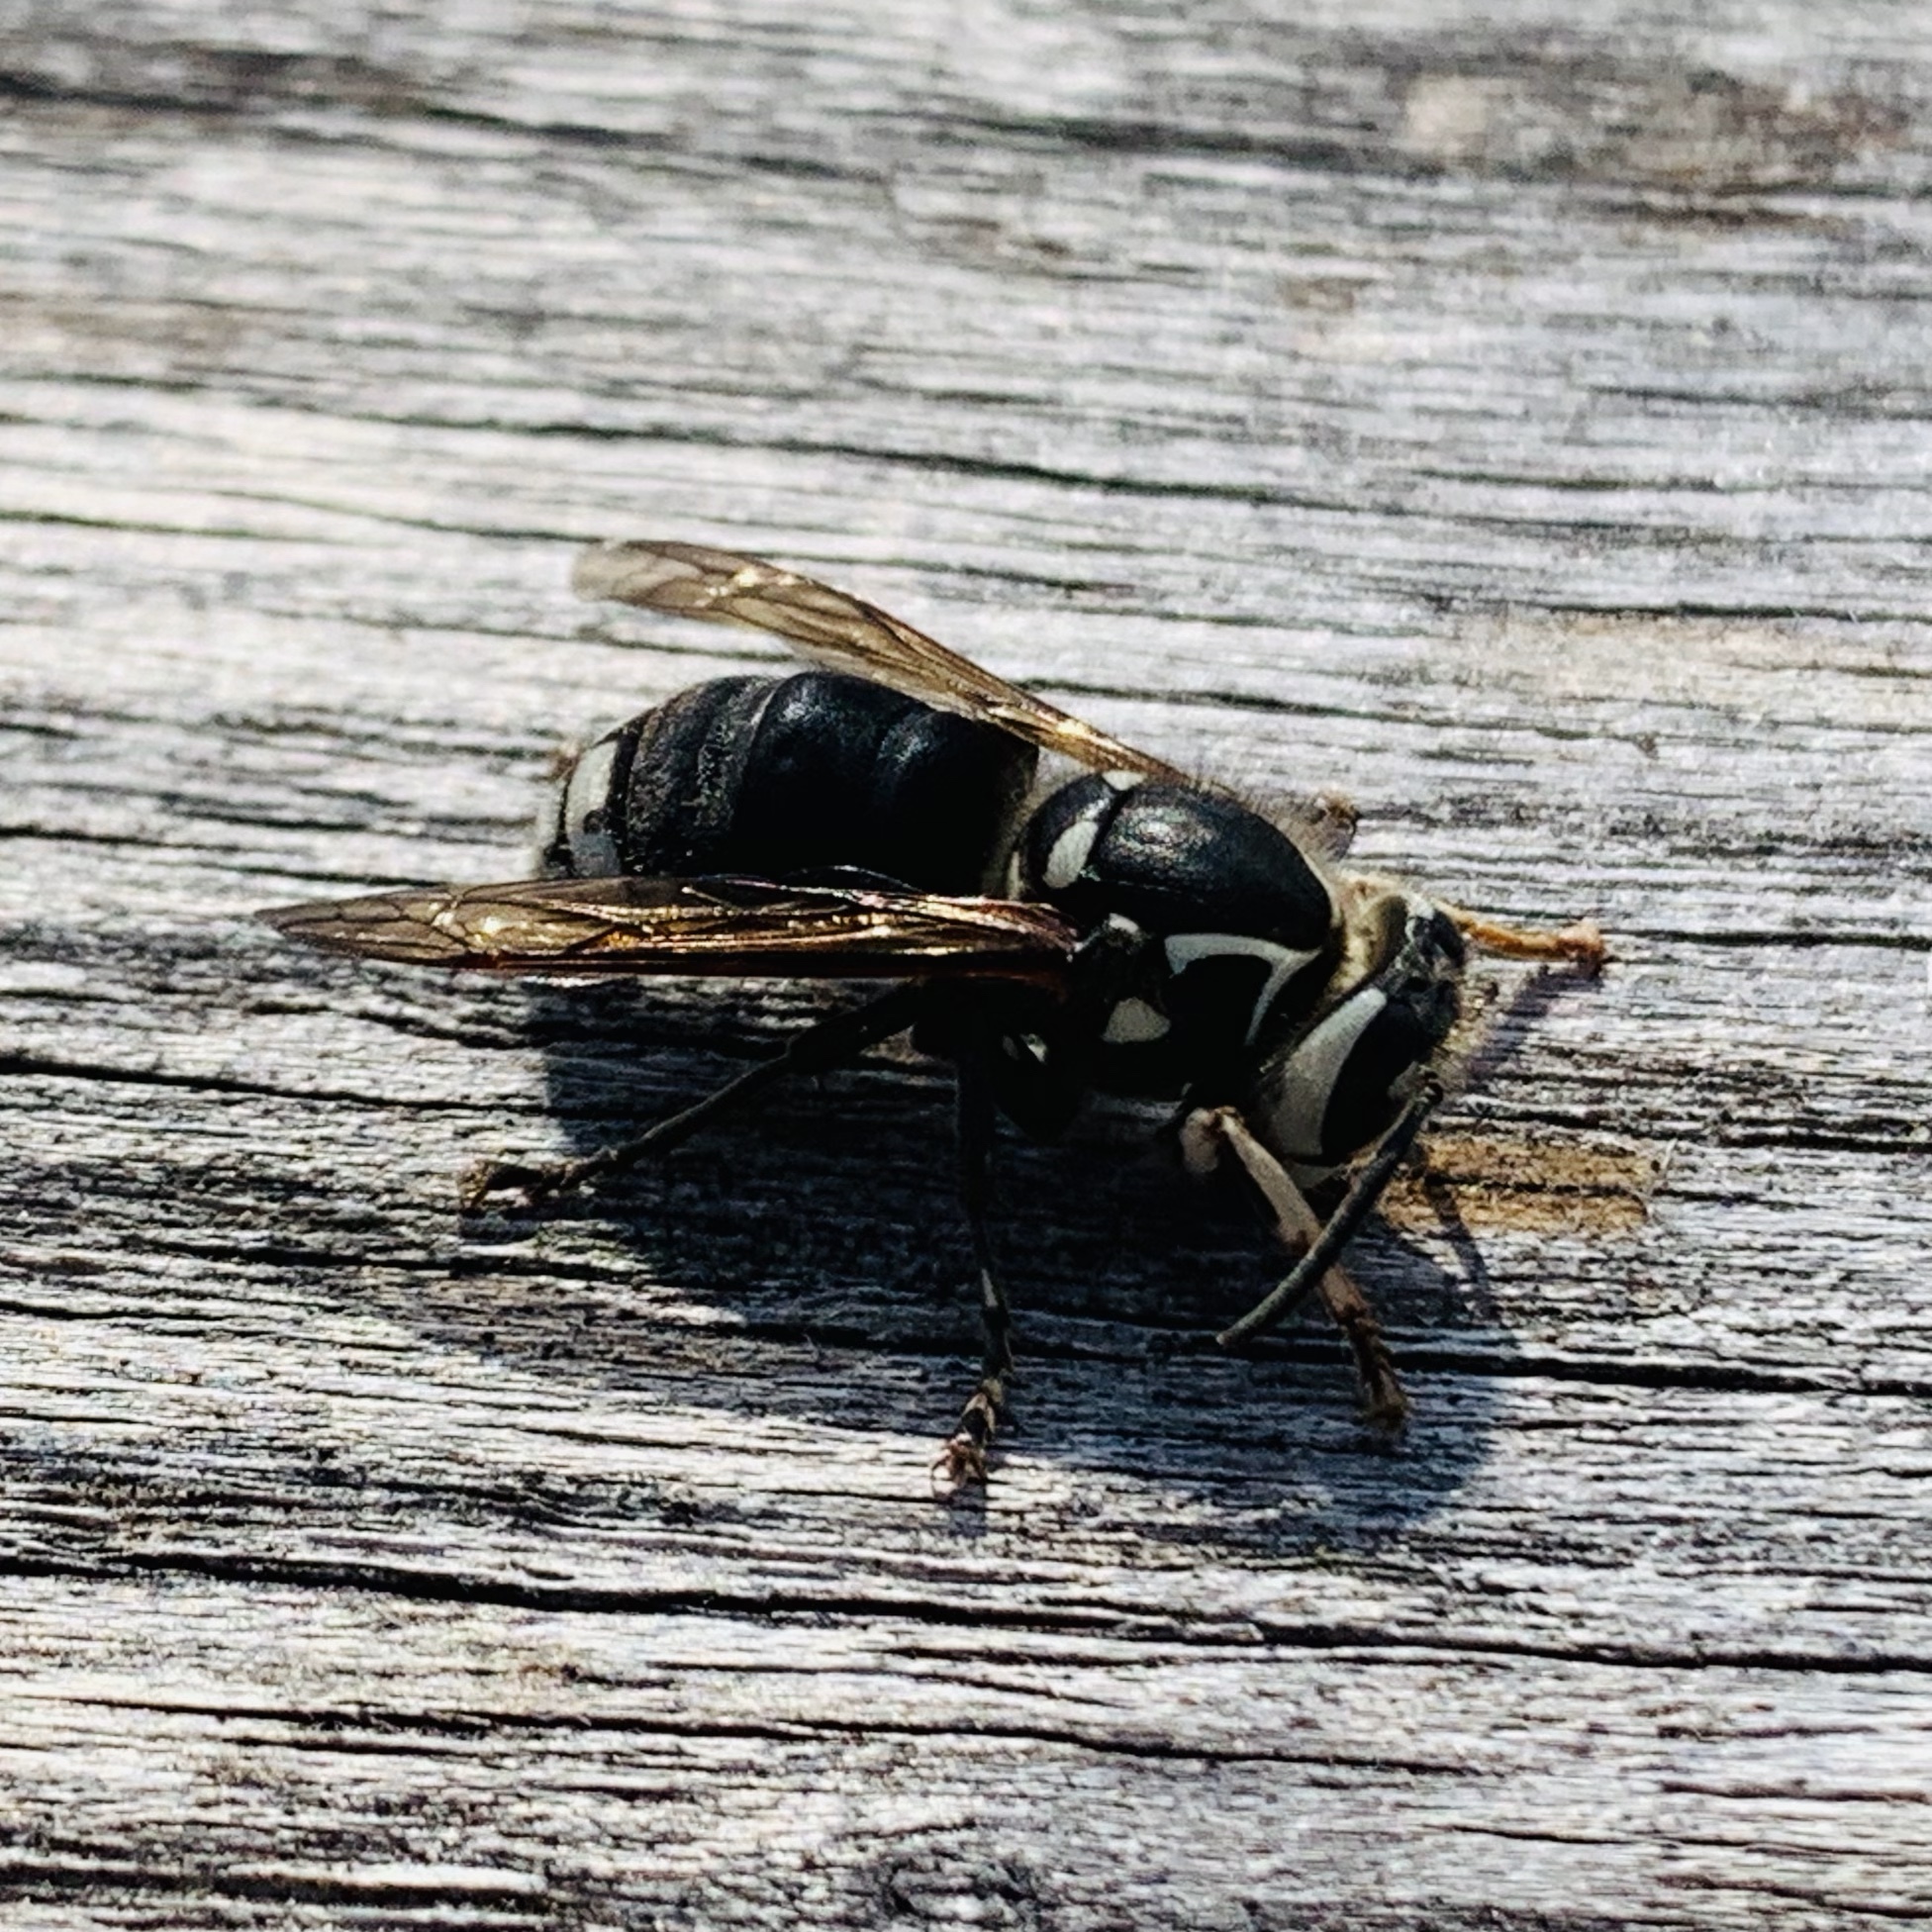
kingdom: Animalia
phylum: Arthropoda
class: Insecta
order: Hymenoptera
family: Vespidae
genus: Dolichovespula
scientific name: Dolichovespula maculata
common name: Bald-faced hornet
